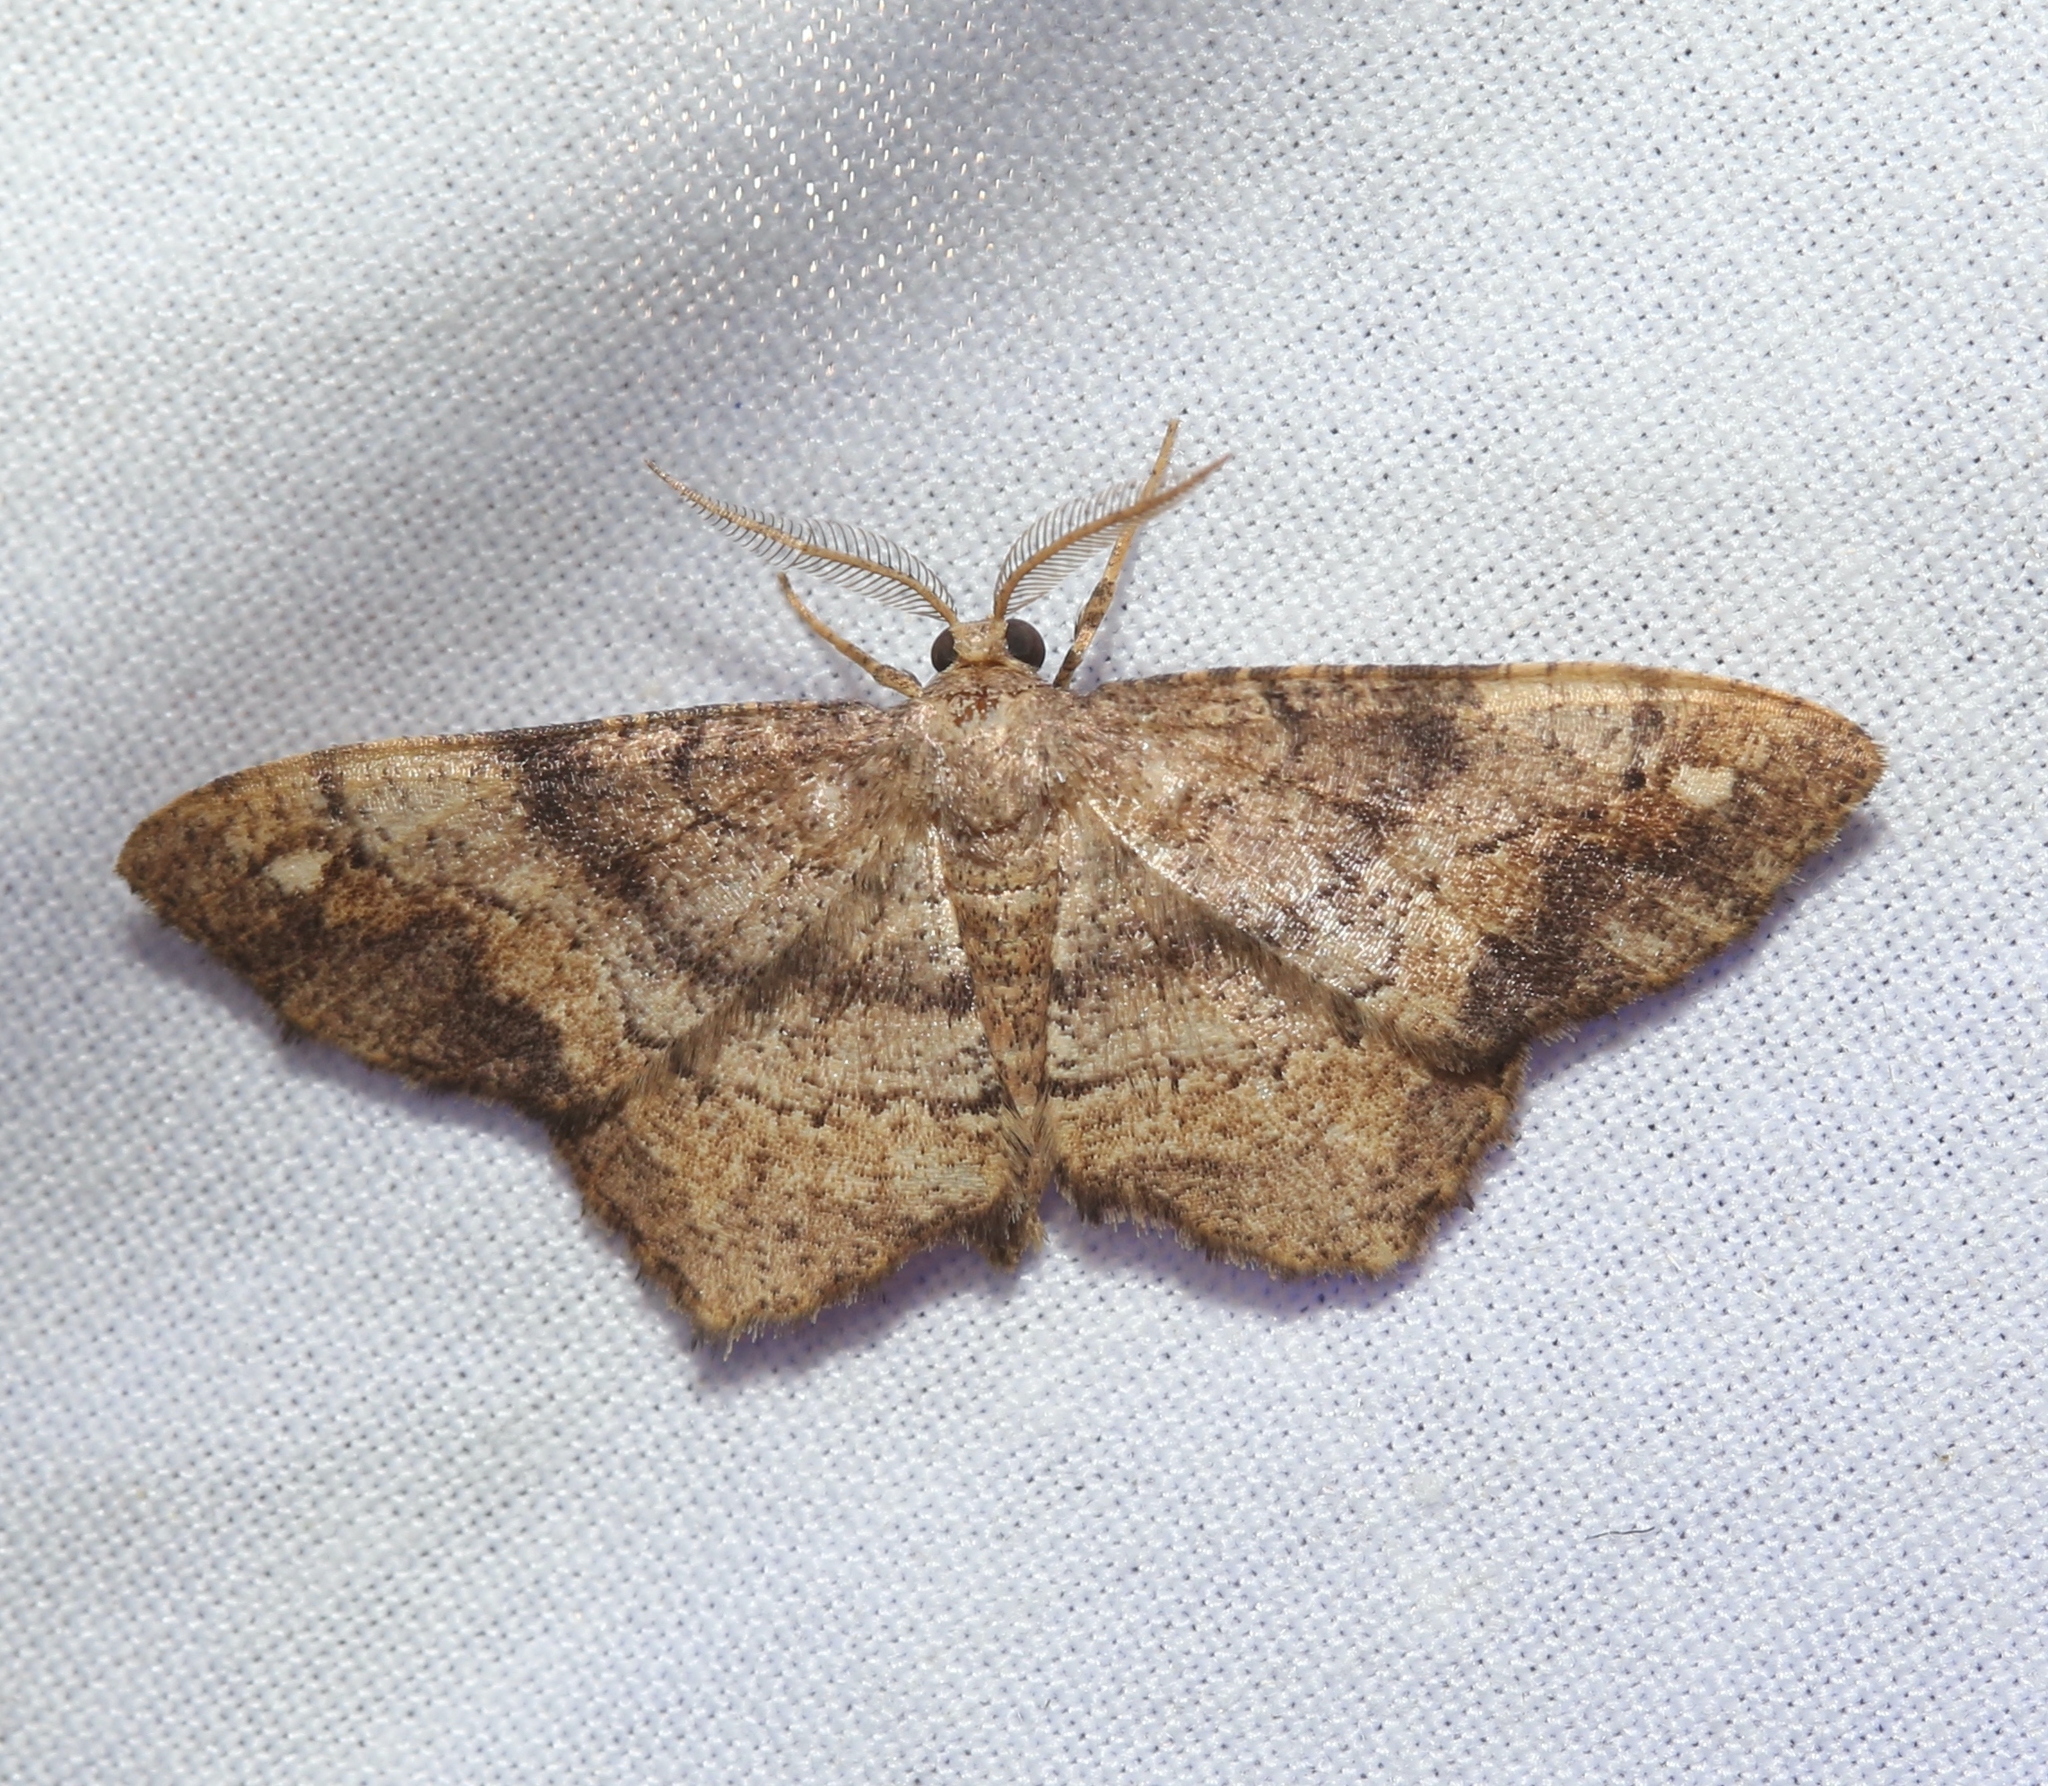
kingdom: Animalia
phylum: Arthropoda
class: Insecta
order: Lepidoptera
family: Geometridae
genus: Hypagyrtis
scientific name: Hypagyrtis unipunctata
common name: One-spotted variant
